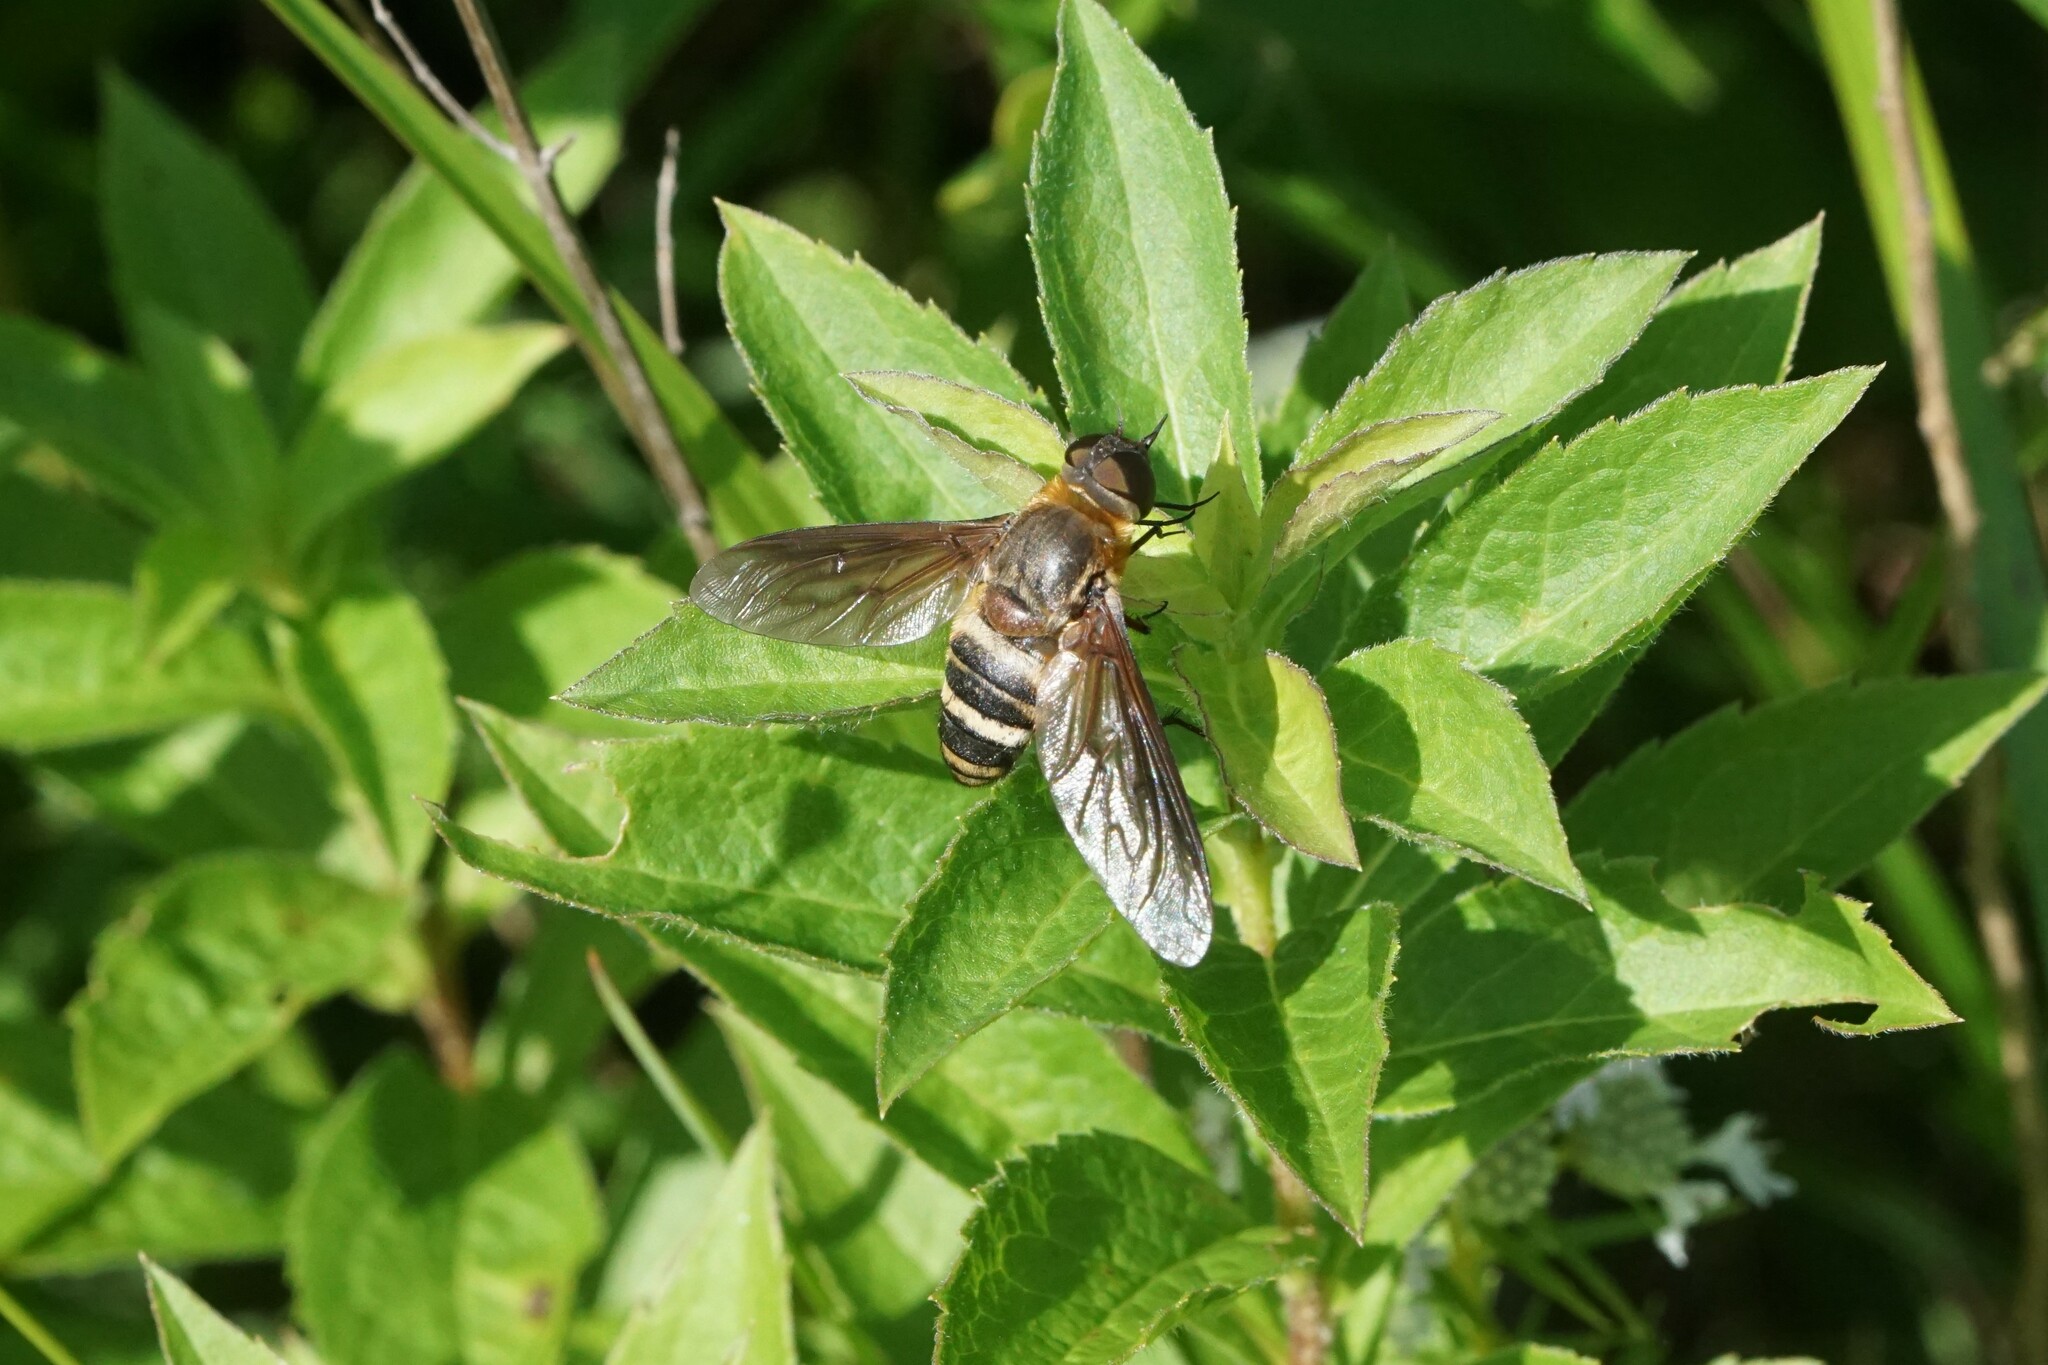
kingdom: Animalia
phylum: Arthropoda
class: Insecta
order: Diptera
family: Bombyliidae
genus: Exoprosopa
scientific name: Exoprosopa fasciata
